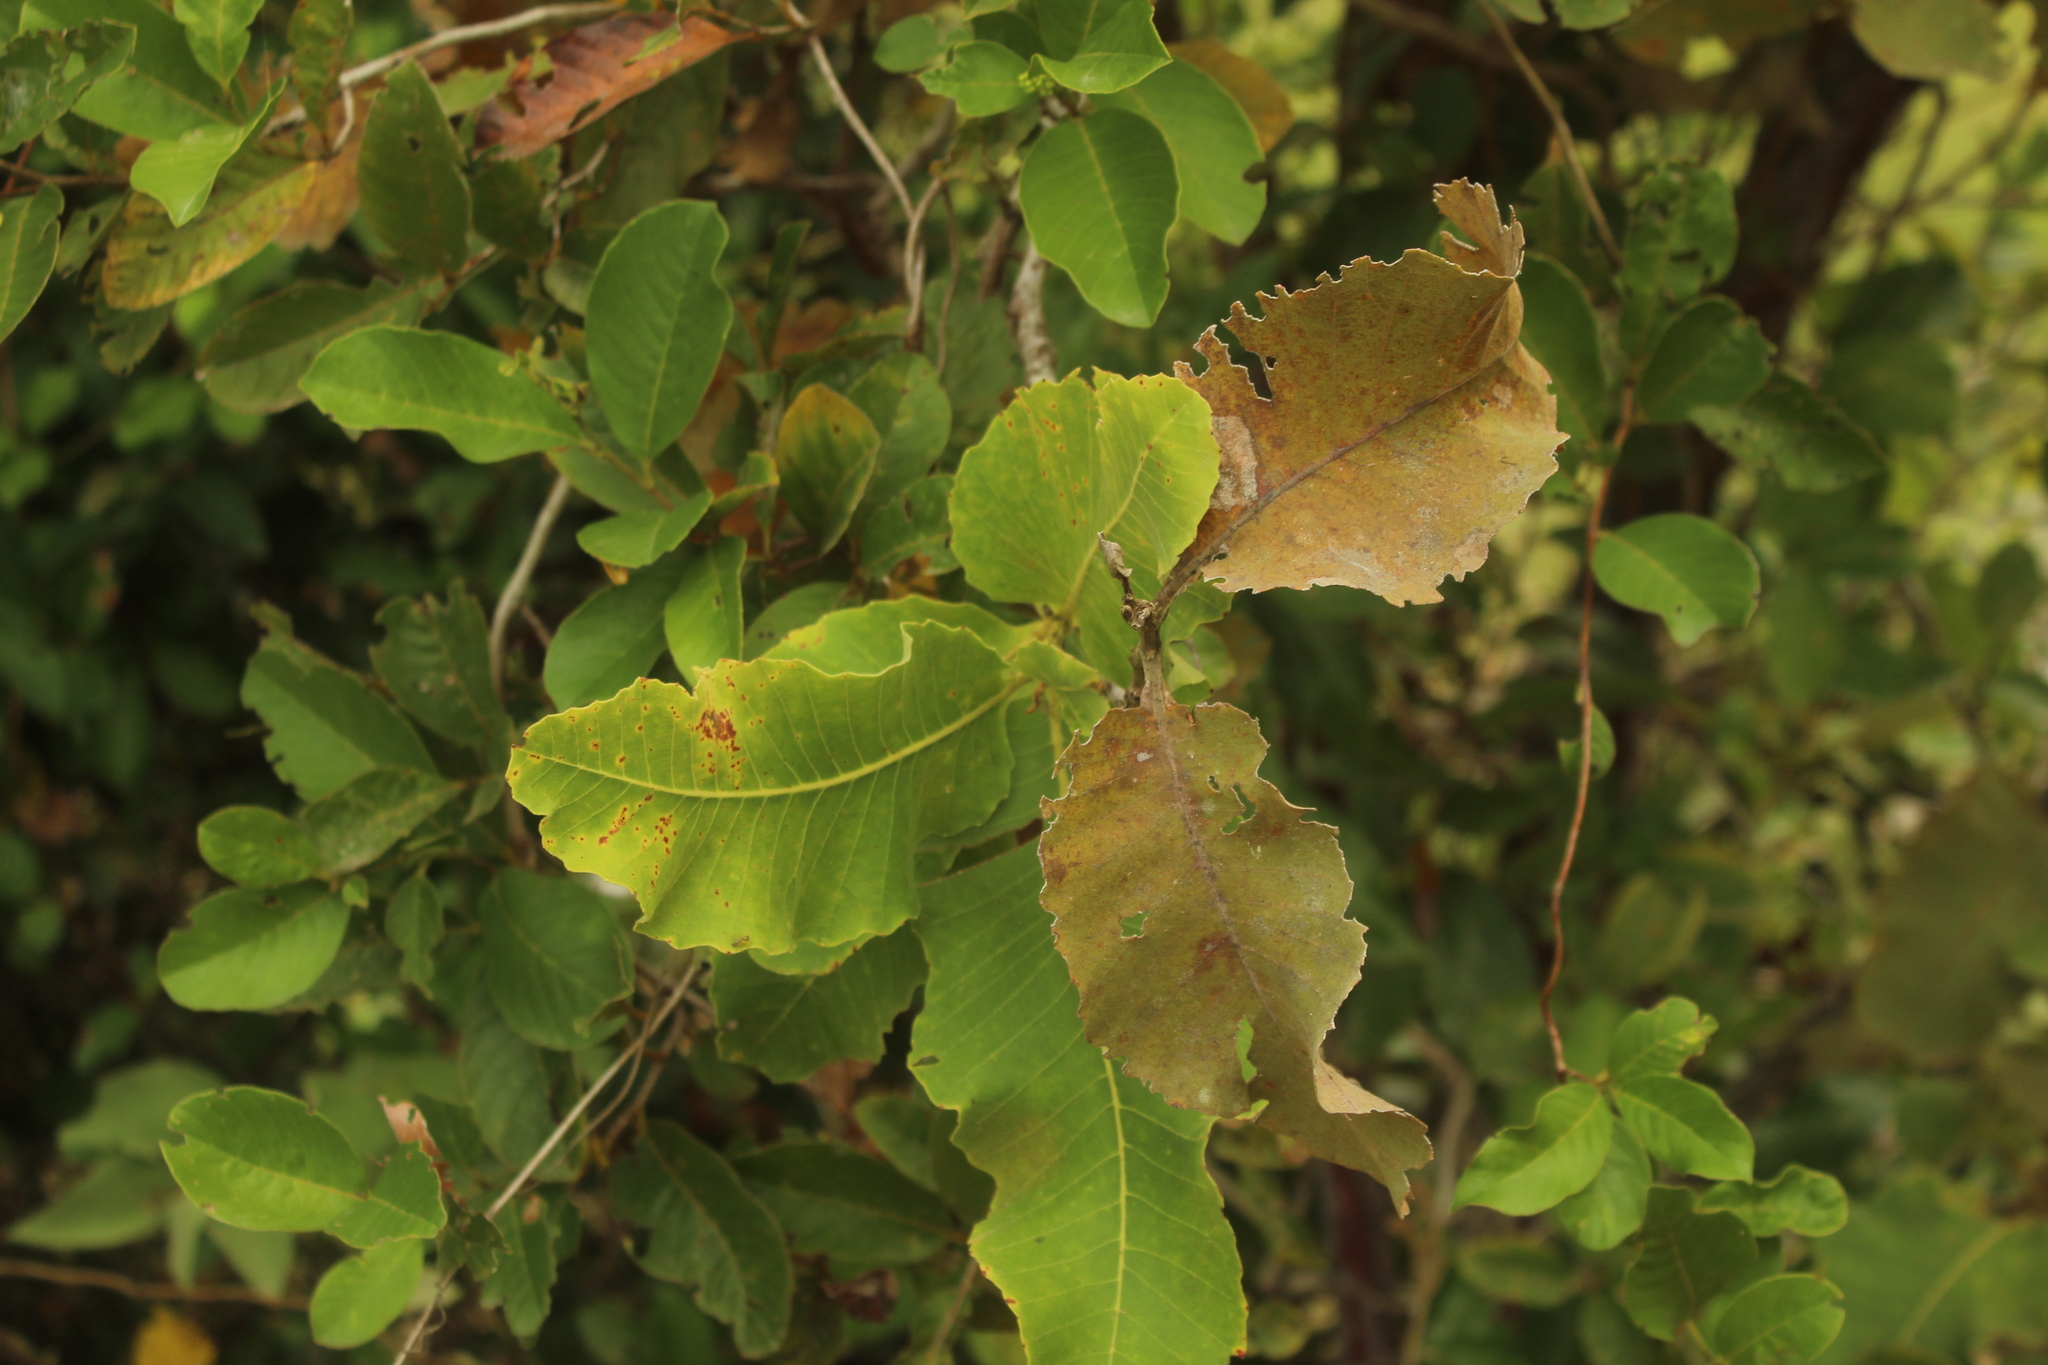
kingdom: Plantae
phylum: Tracheophyta
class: Magnoliopsida
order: Dilleniales
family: Dilleniaceae
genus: Curatella
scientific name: Curatella americana
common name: Sandpaper tree
